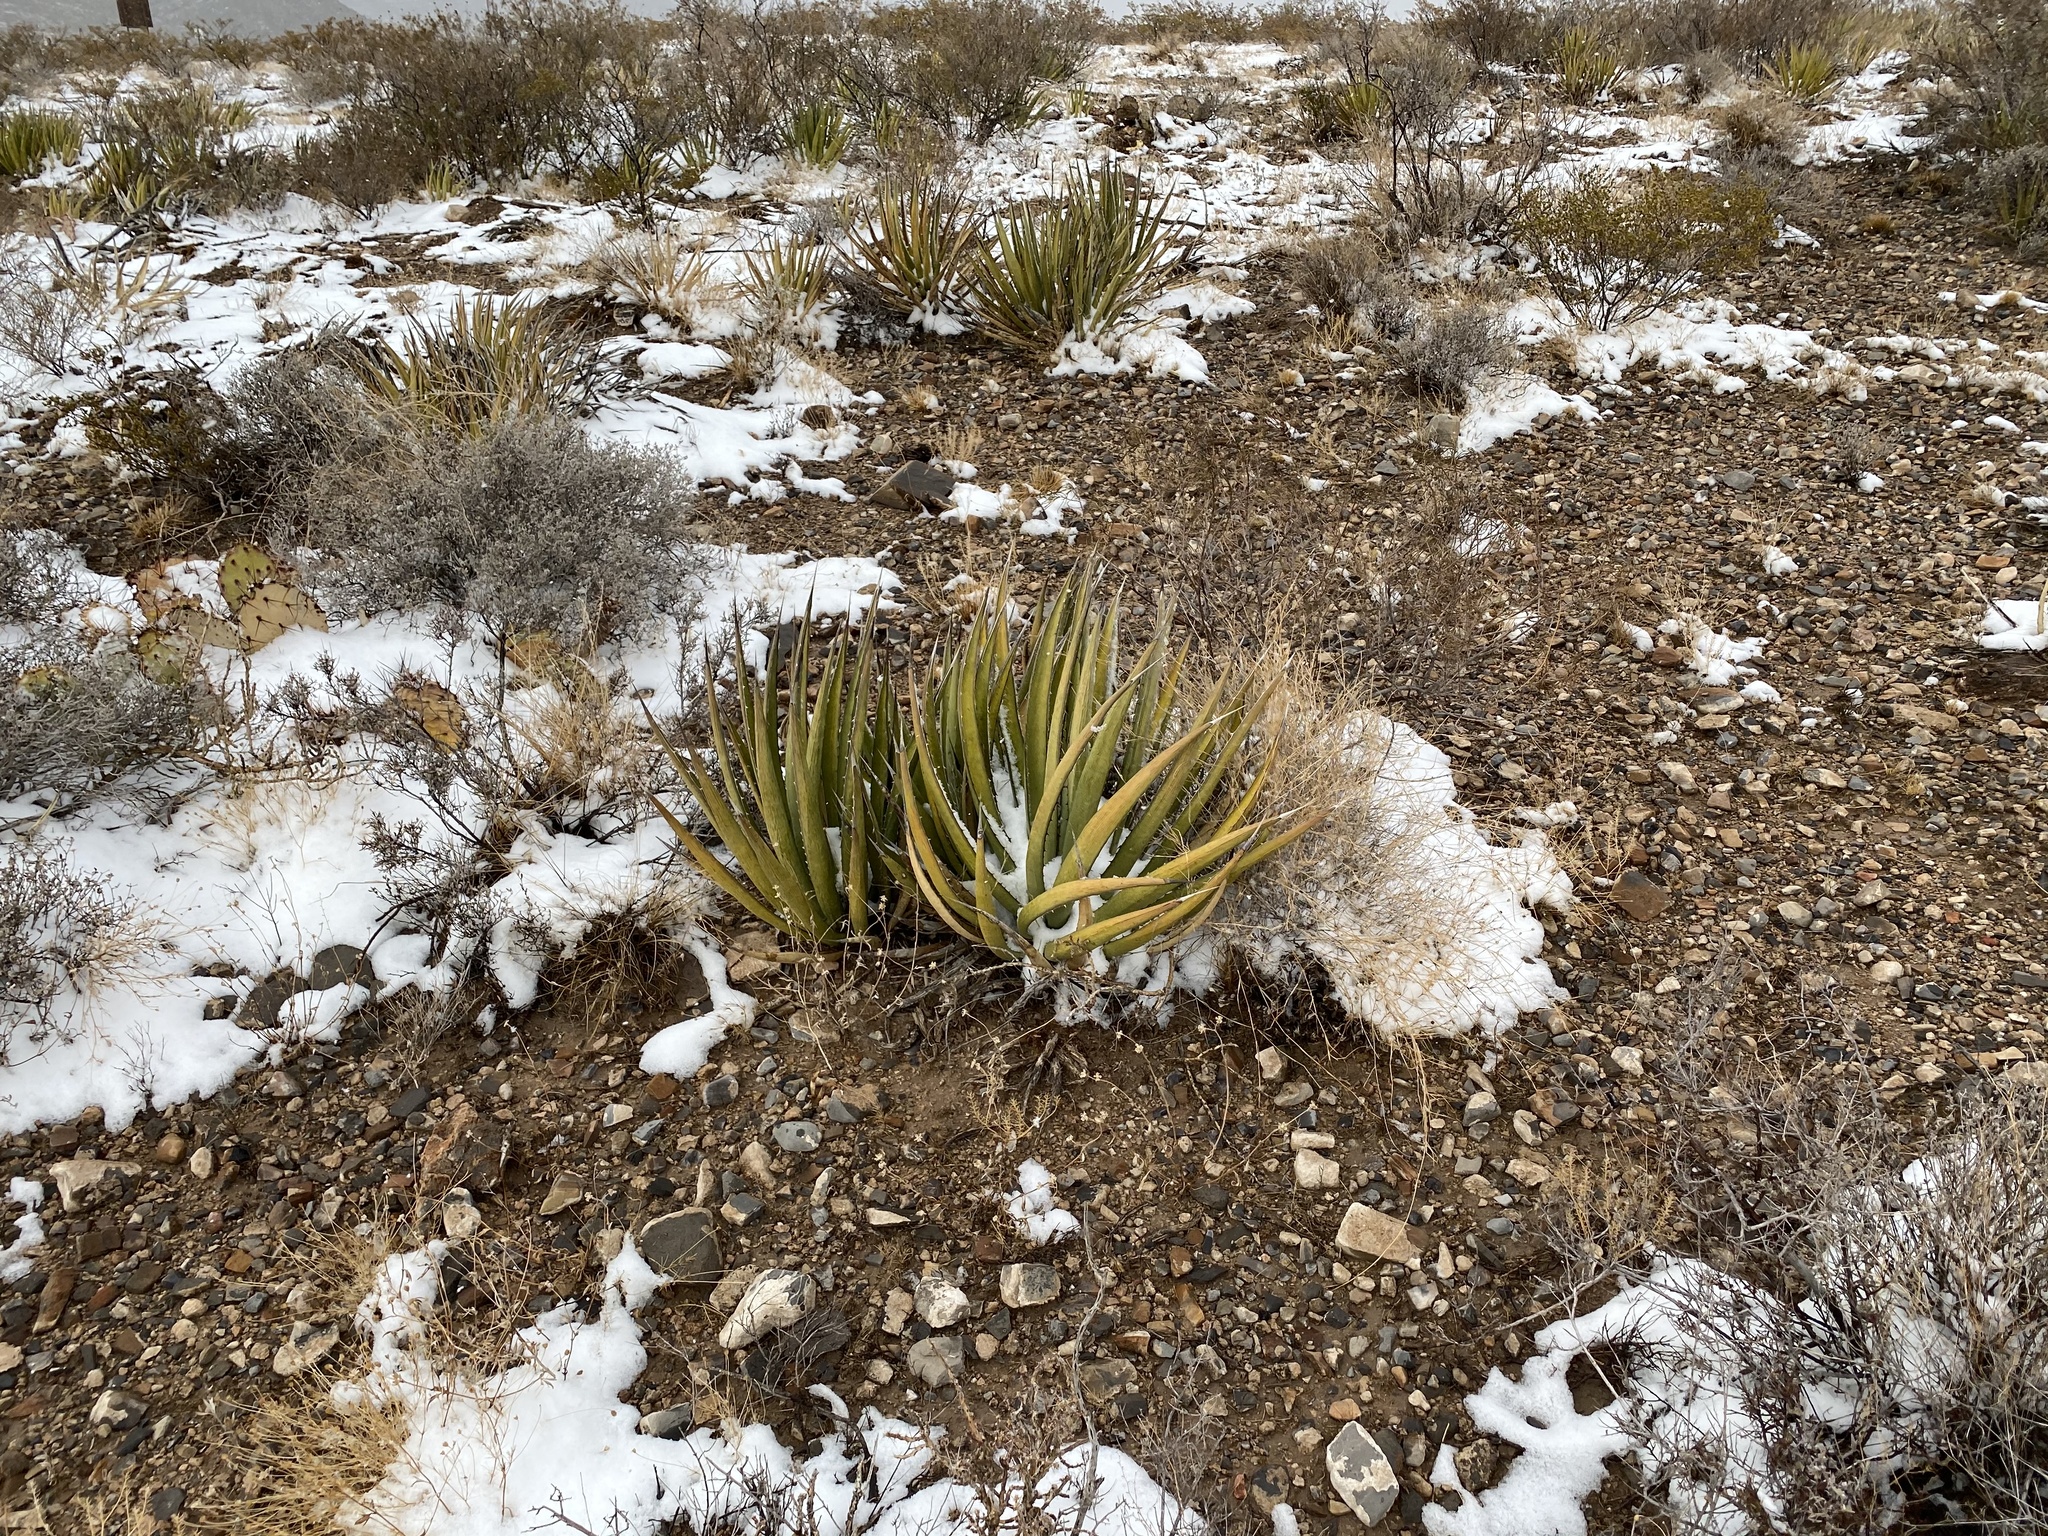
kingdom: Plantae
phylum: Tracheophyta
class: Liliopsida
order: Asparagales
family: Asparagaceae
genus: Agave
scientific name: Agave lechuguilla
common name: Lecheguilla agave
